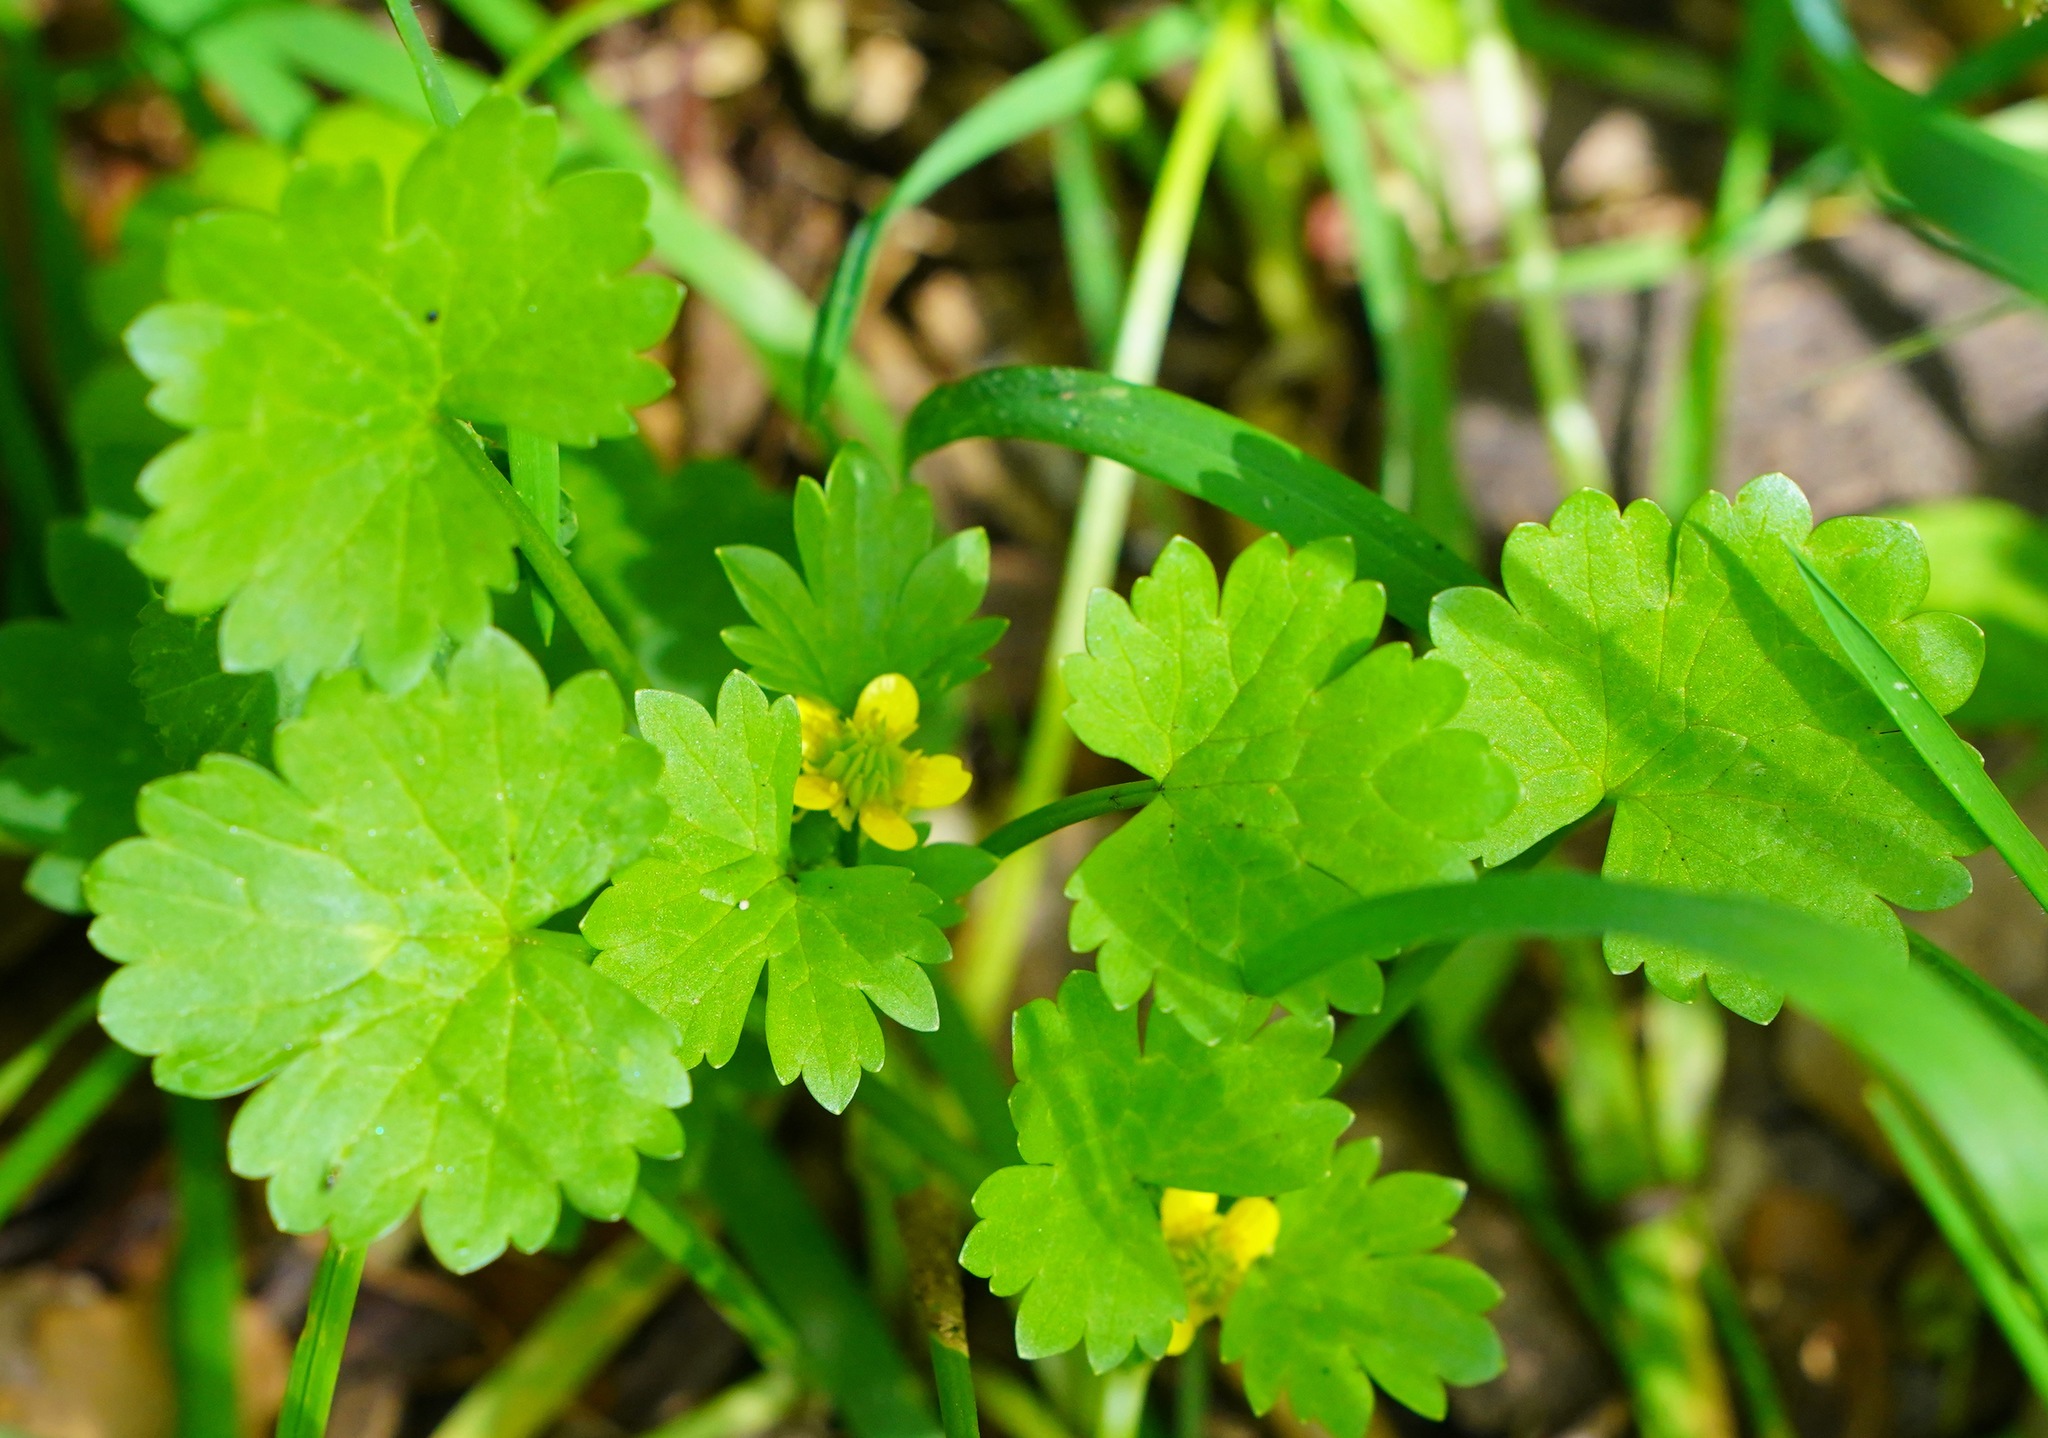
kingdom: Plantae
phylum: Tracheophyta
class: Magnoliopsida
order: Ranunculales
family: Ranunculaceae
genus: Ranunculus
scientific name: Ranunculus muricatus
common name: Rough-fruited buttercup
